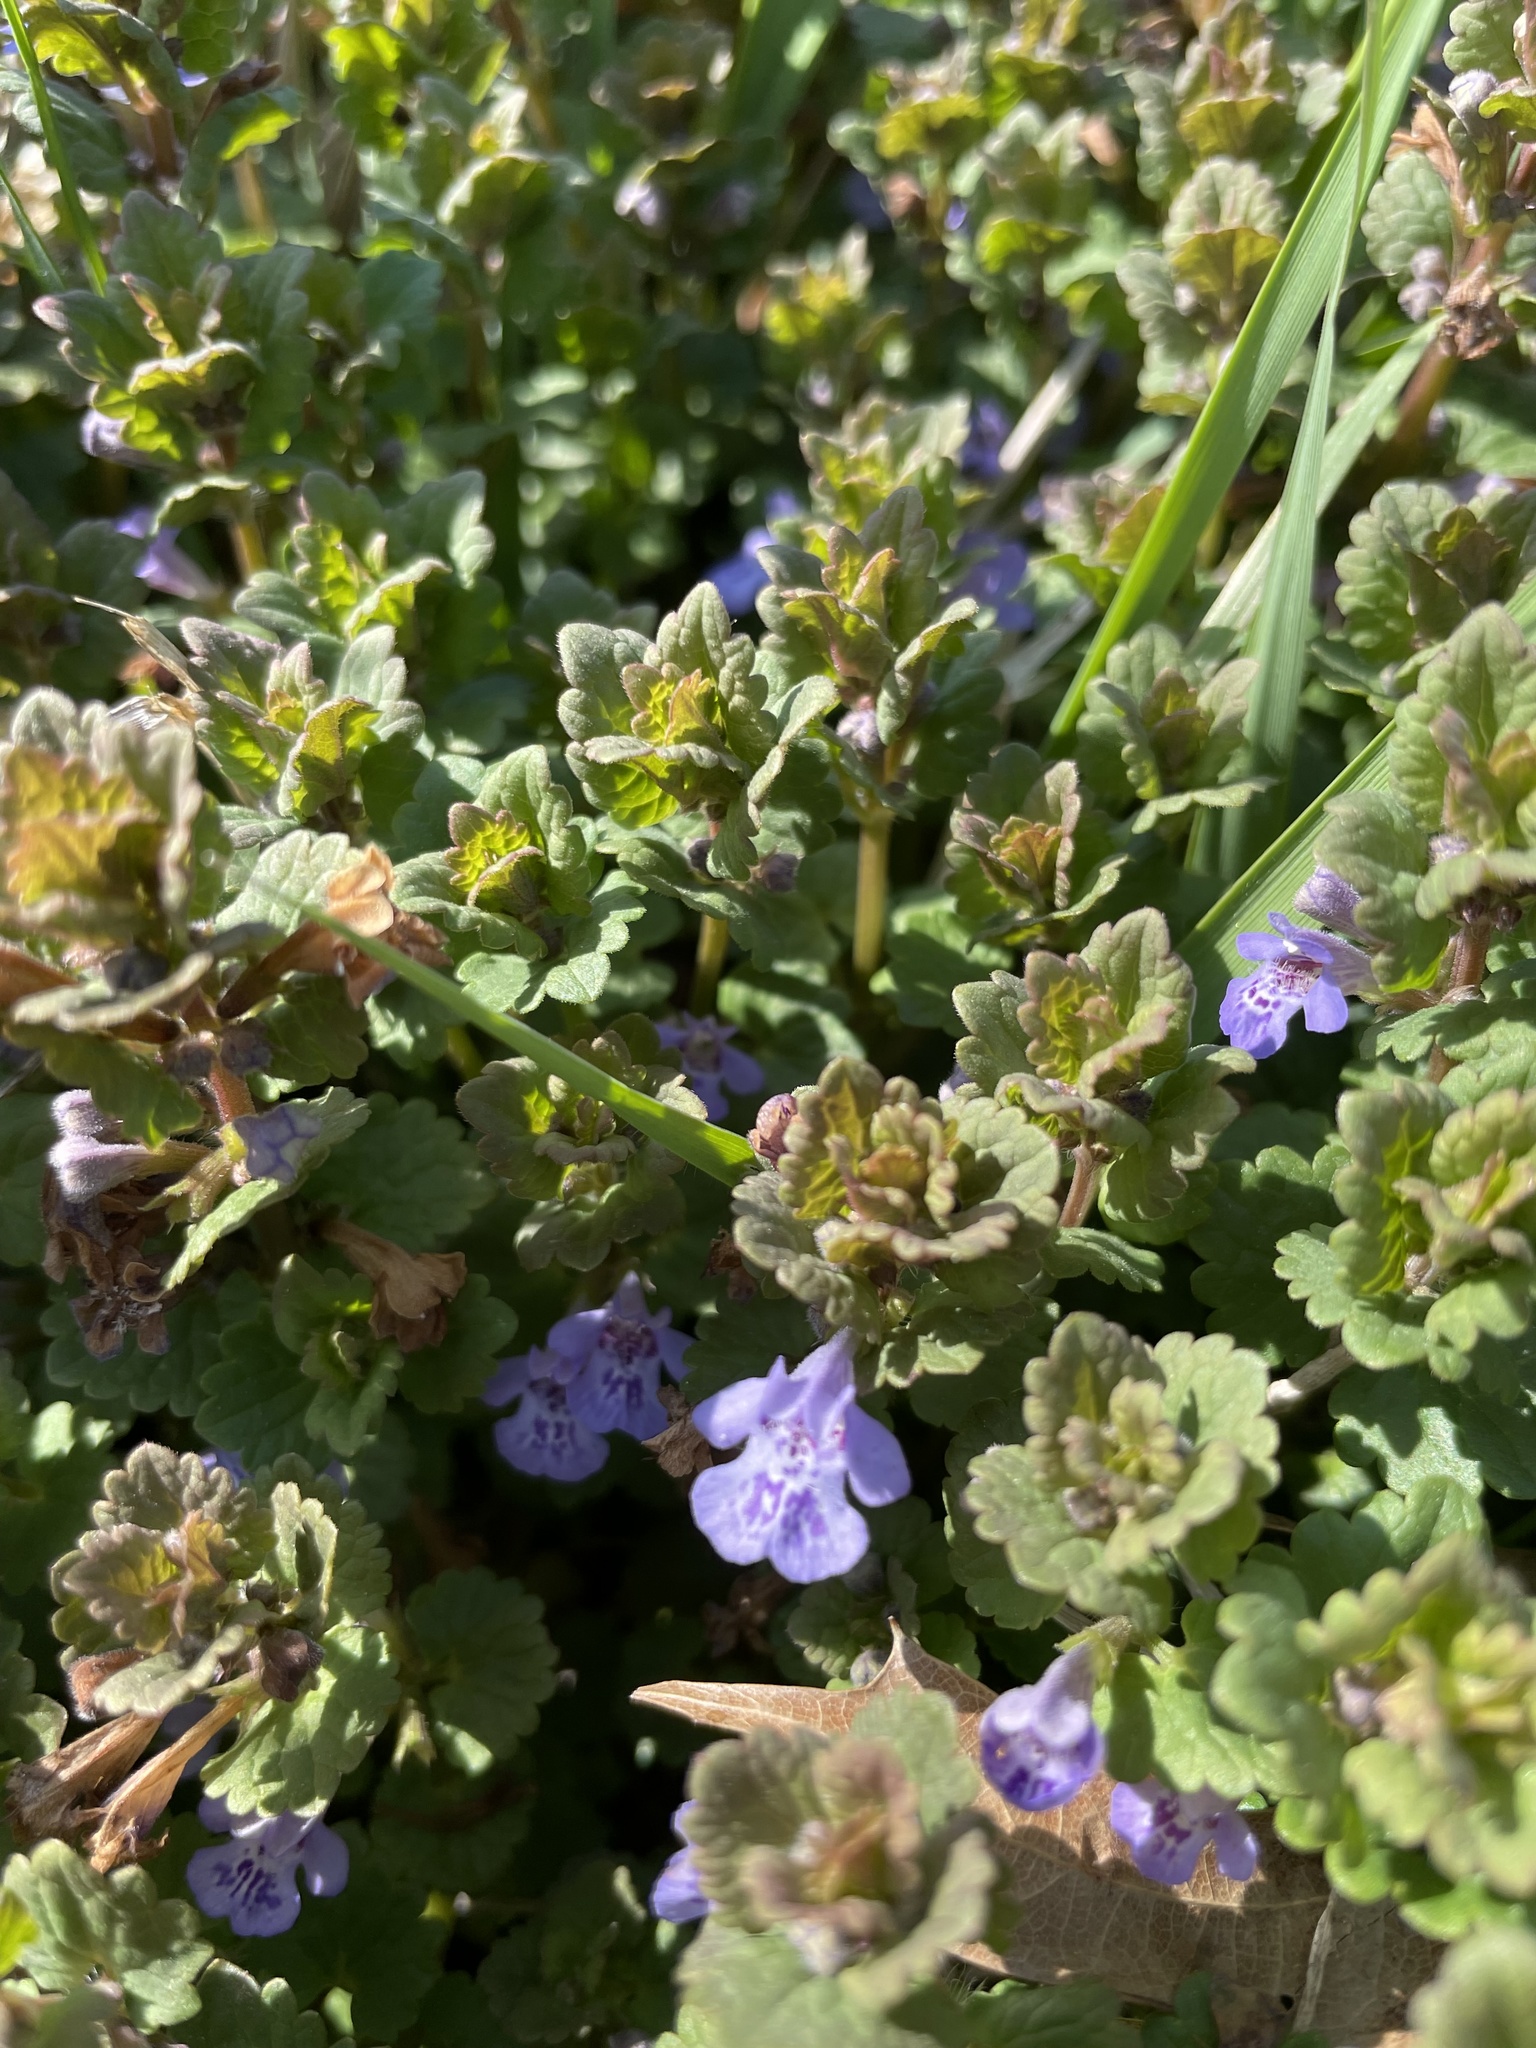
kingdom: Plantae
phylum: Tracheophyta
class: Magnoliopsida
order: Lamiales
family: Lamiaceae
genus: Glechoma
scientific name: Glechoma hederacea
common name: Ground ivy
